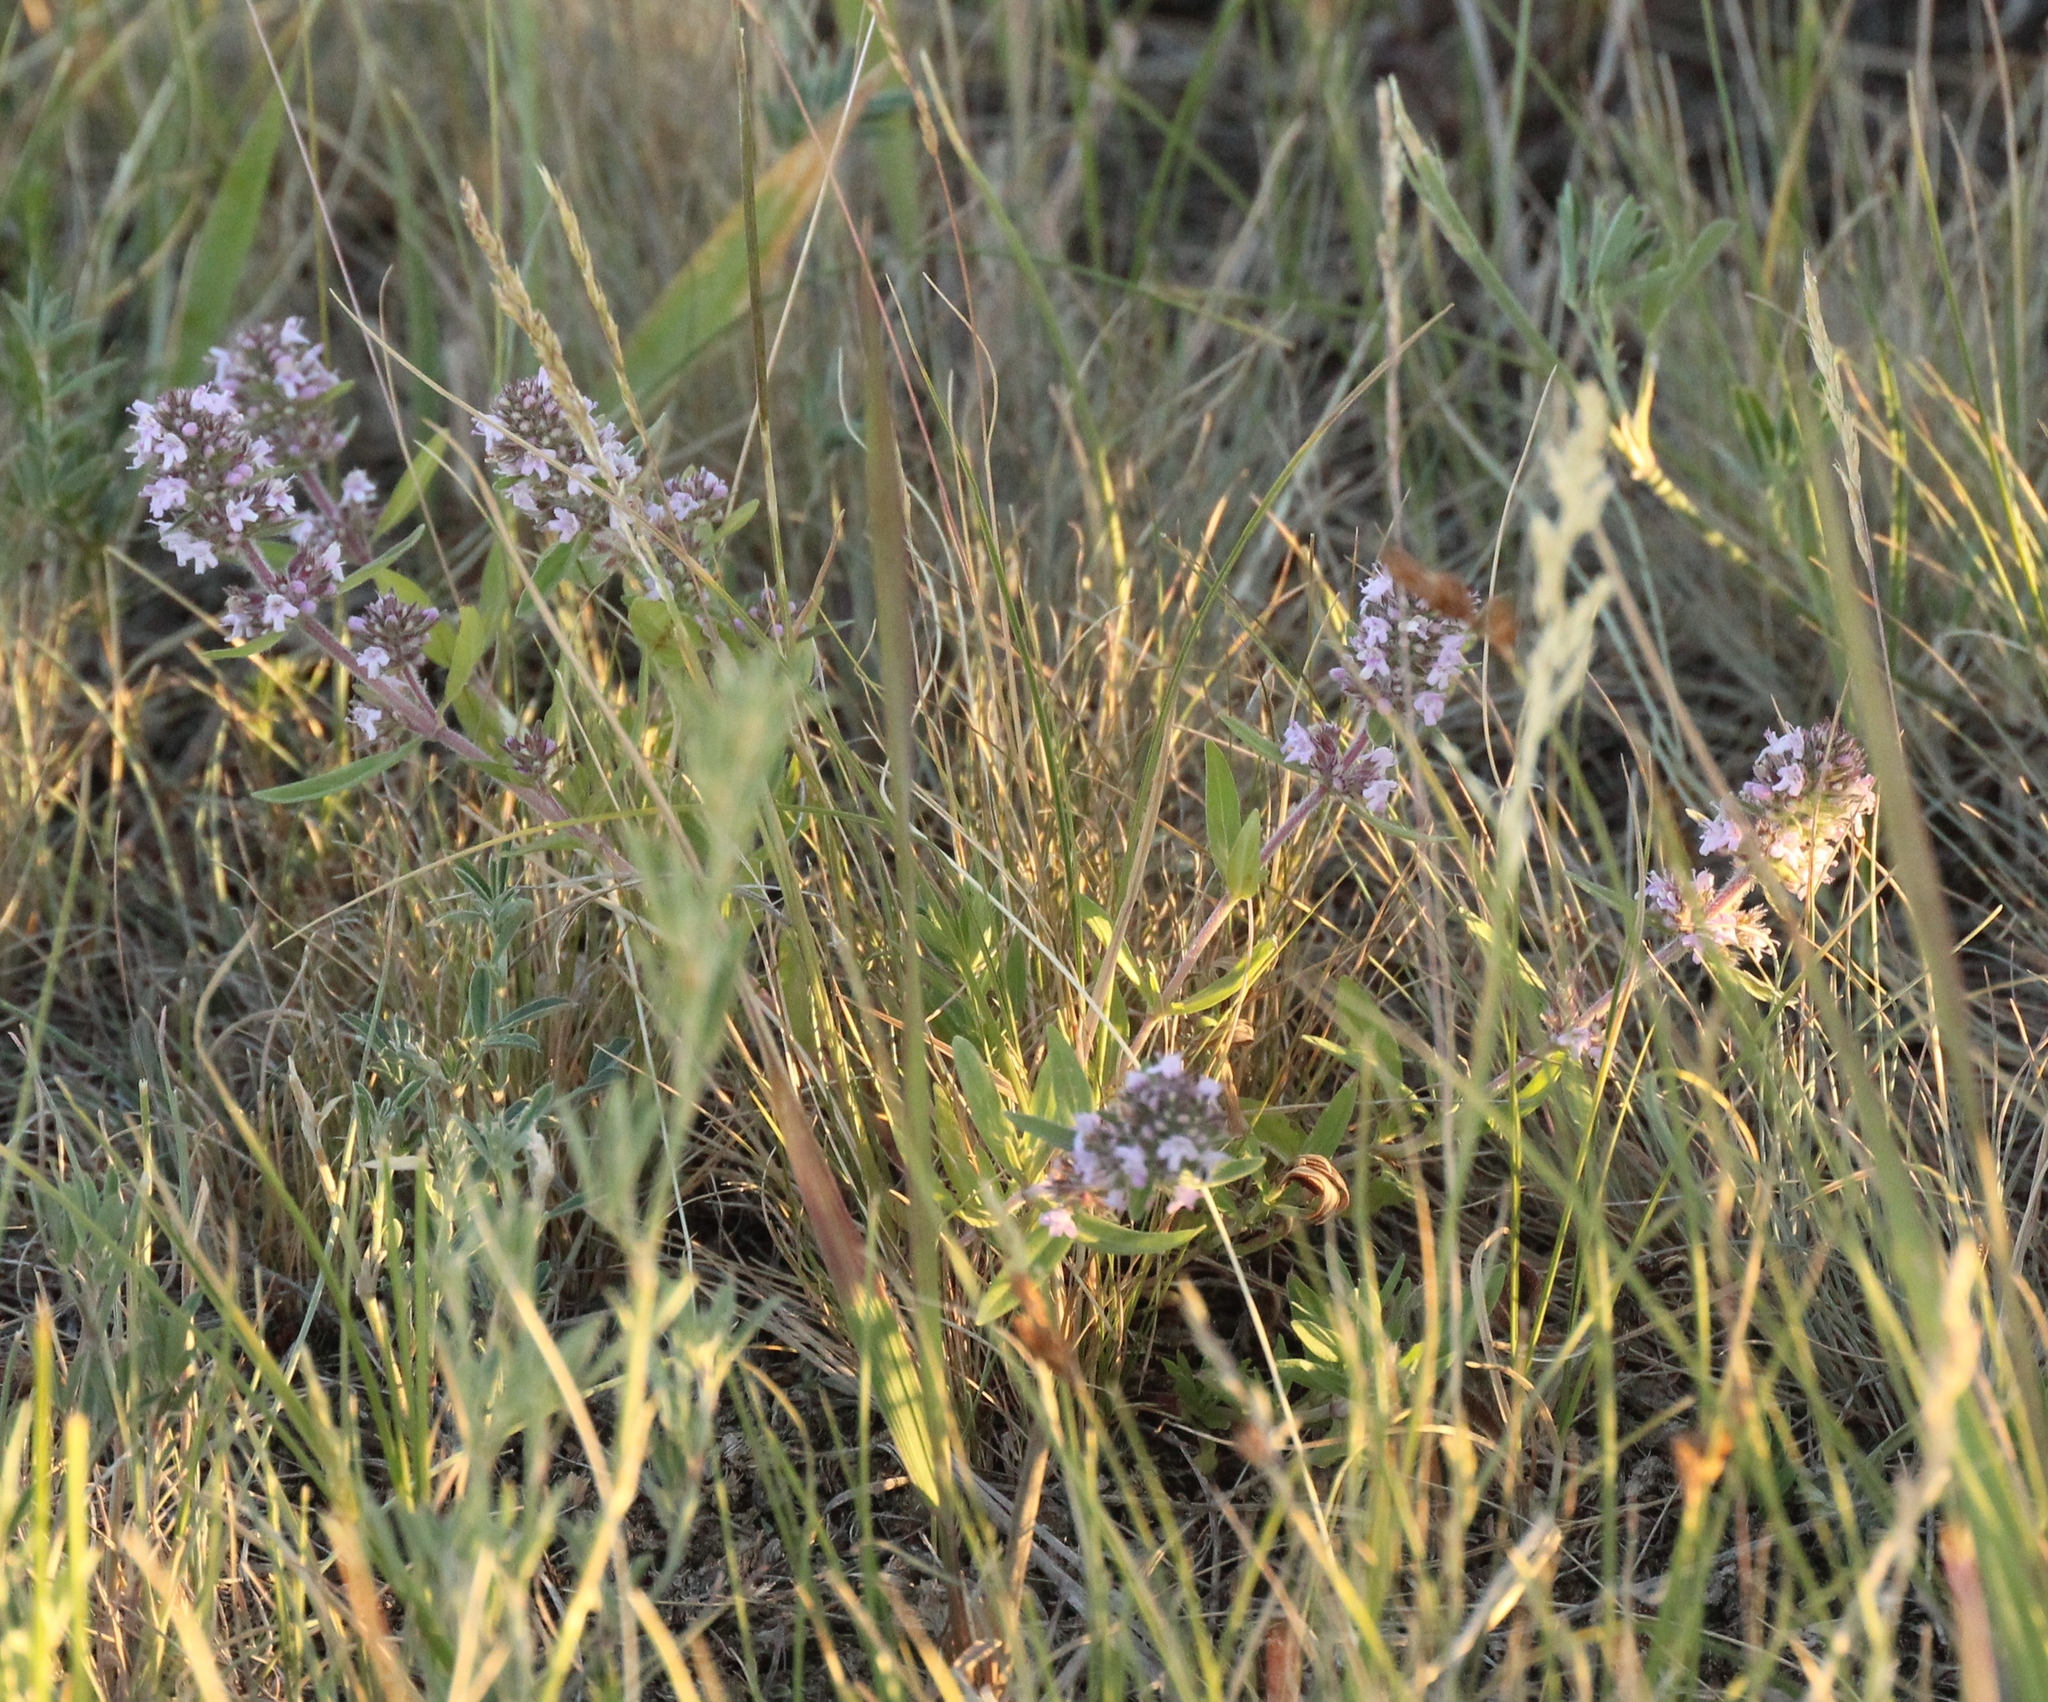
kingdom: Plantae
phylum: Tracheophyta
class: Magnoliopsida
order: Lamiales
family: Lamiaceae
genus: Thymus
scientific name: Thymus pannonicus
